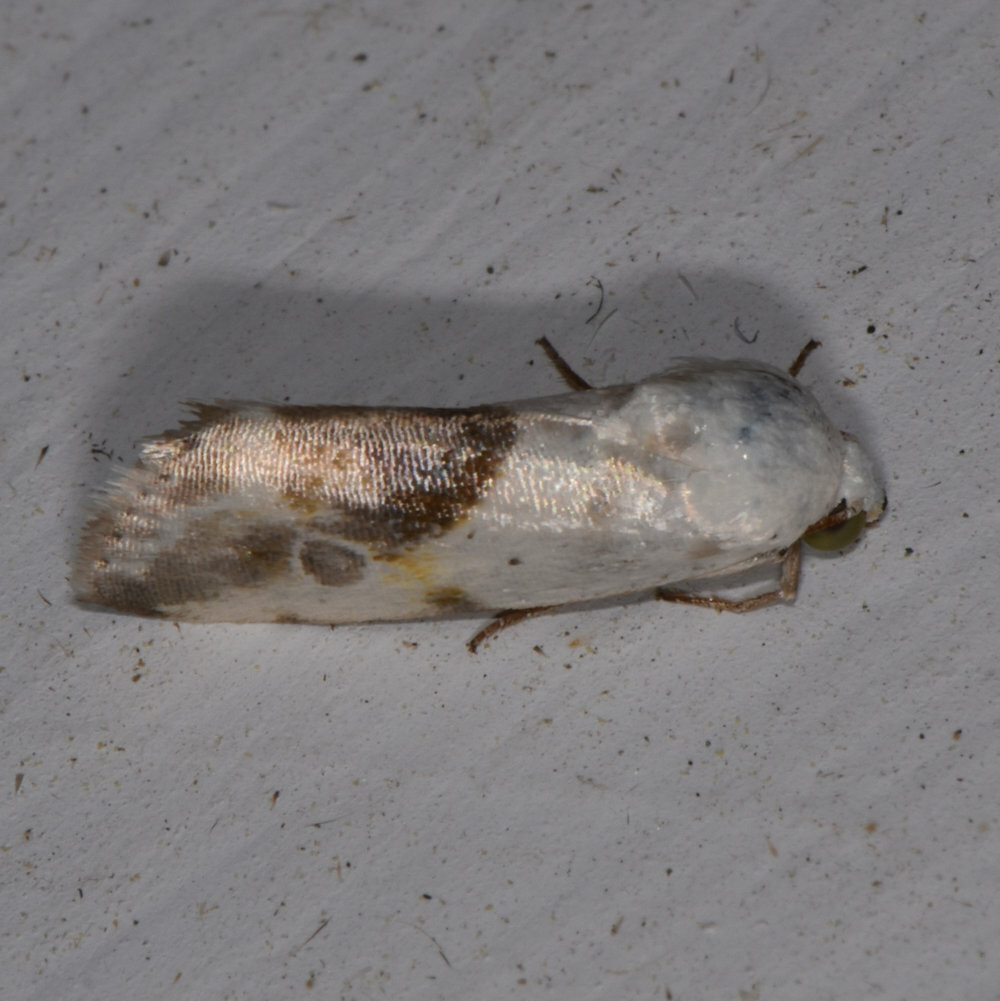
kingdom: Animalia
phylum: Arthropoda
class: Insecta
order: Lepidoptera
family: Noctuidae
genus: Acontia
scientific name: Acontia candefacta
